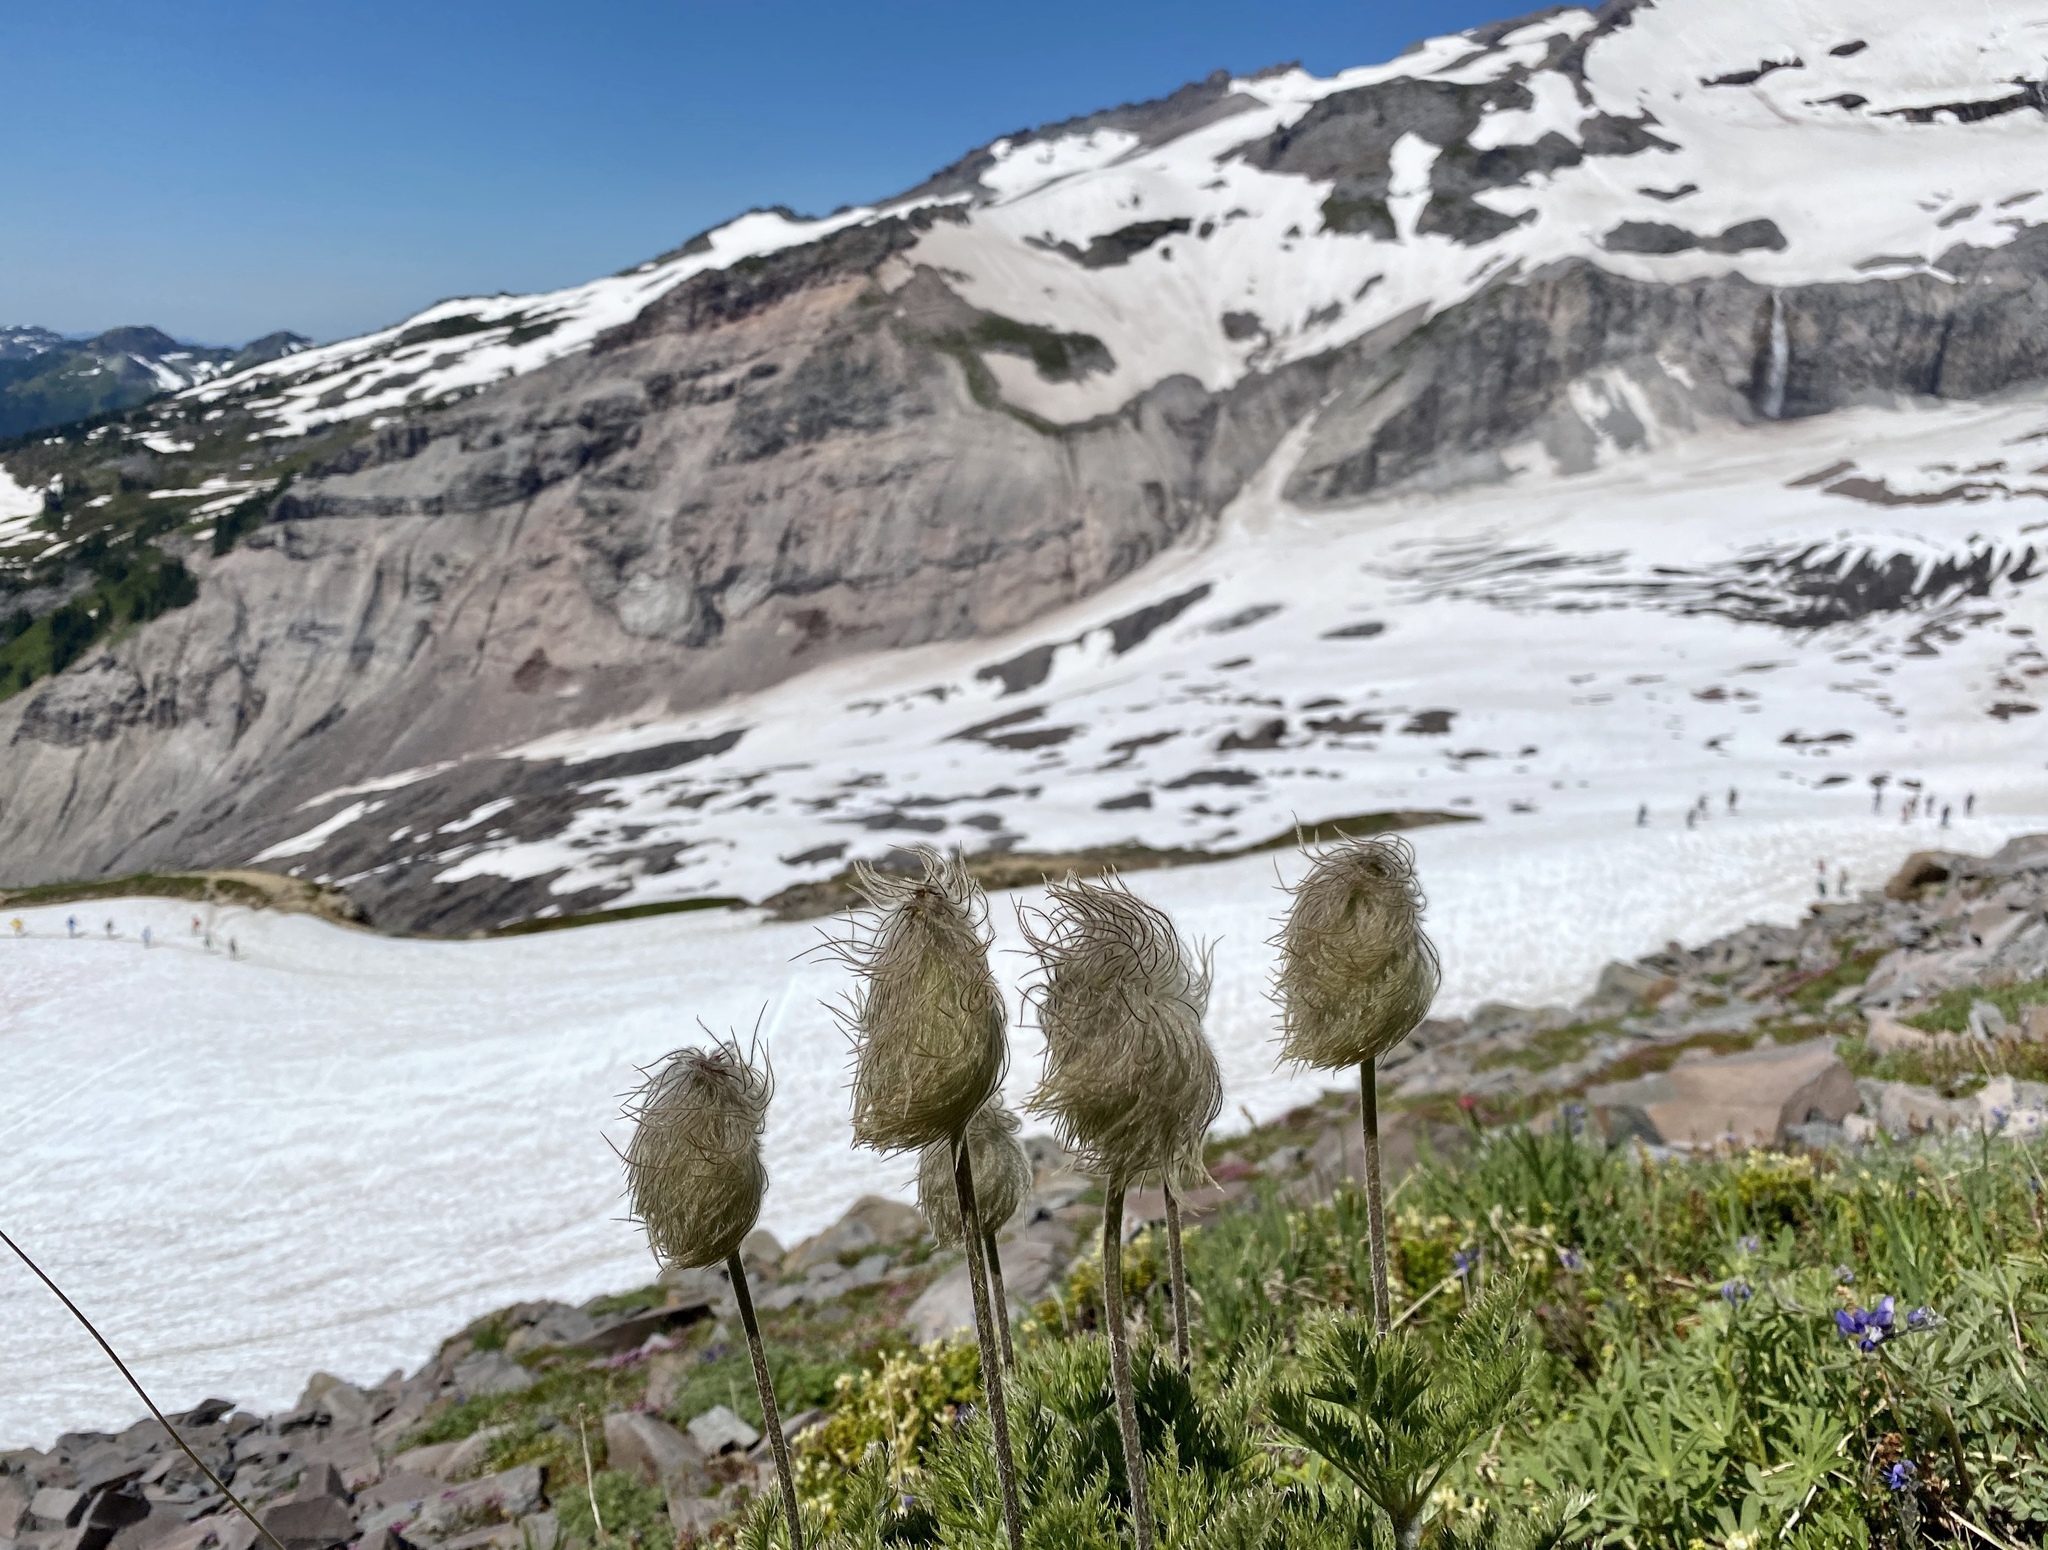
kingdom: Plantae
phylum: Tracheophyta
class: Magnoliopsida
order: Ranunculales
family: Ranunculaceae
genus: Pulsatilla
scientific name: Pulsatilla occidentalis
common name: Mountain pasqueflower
